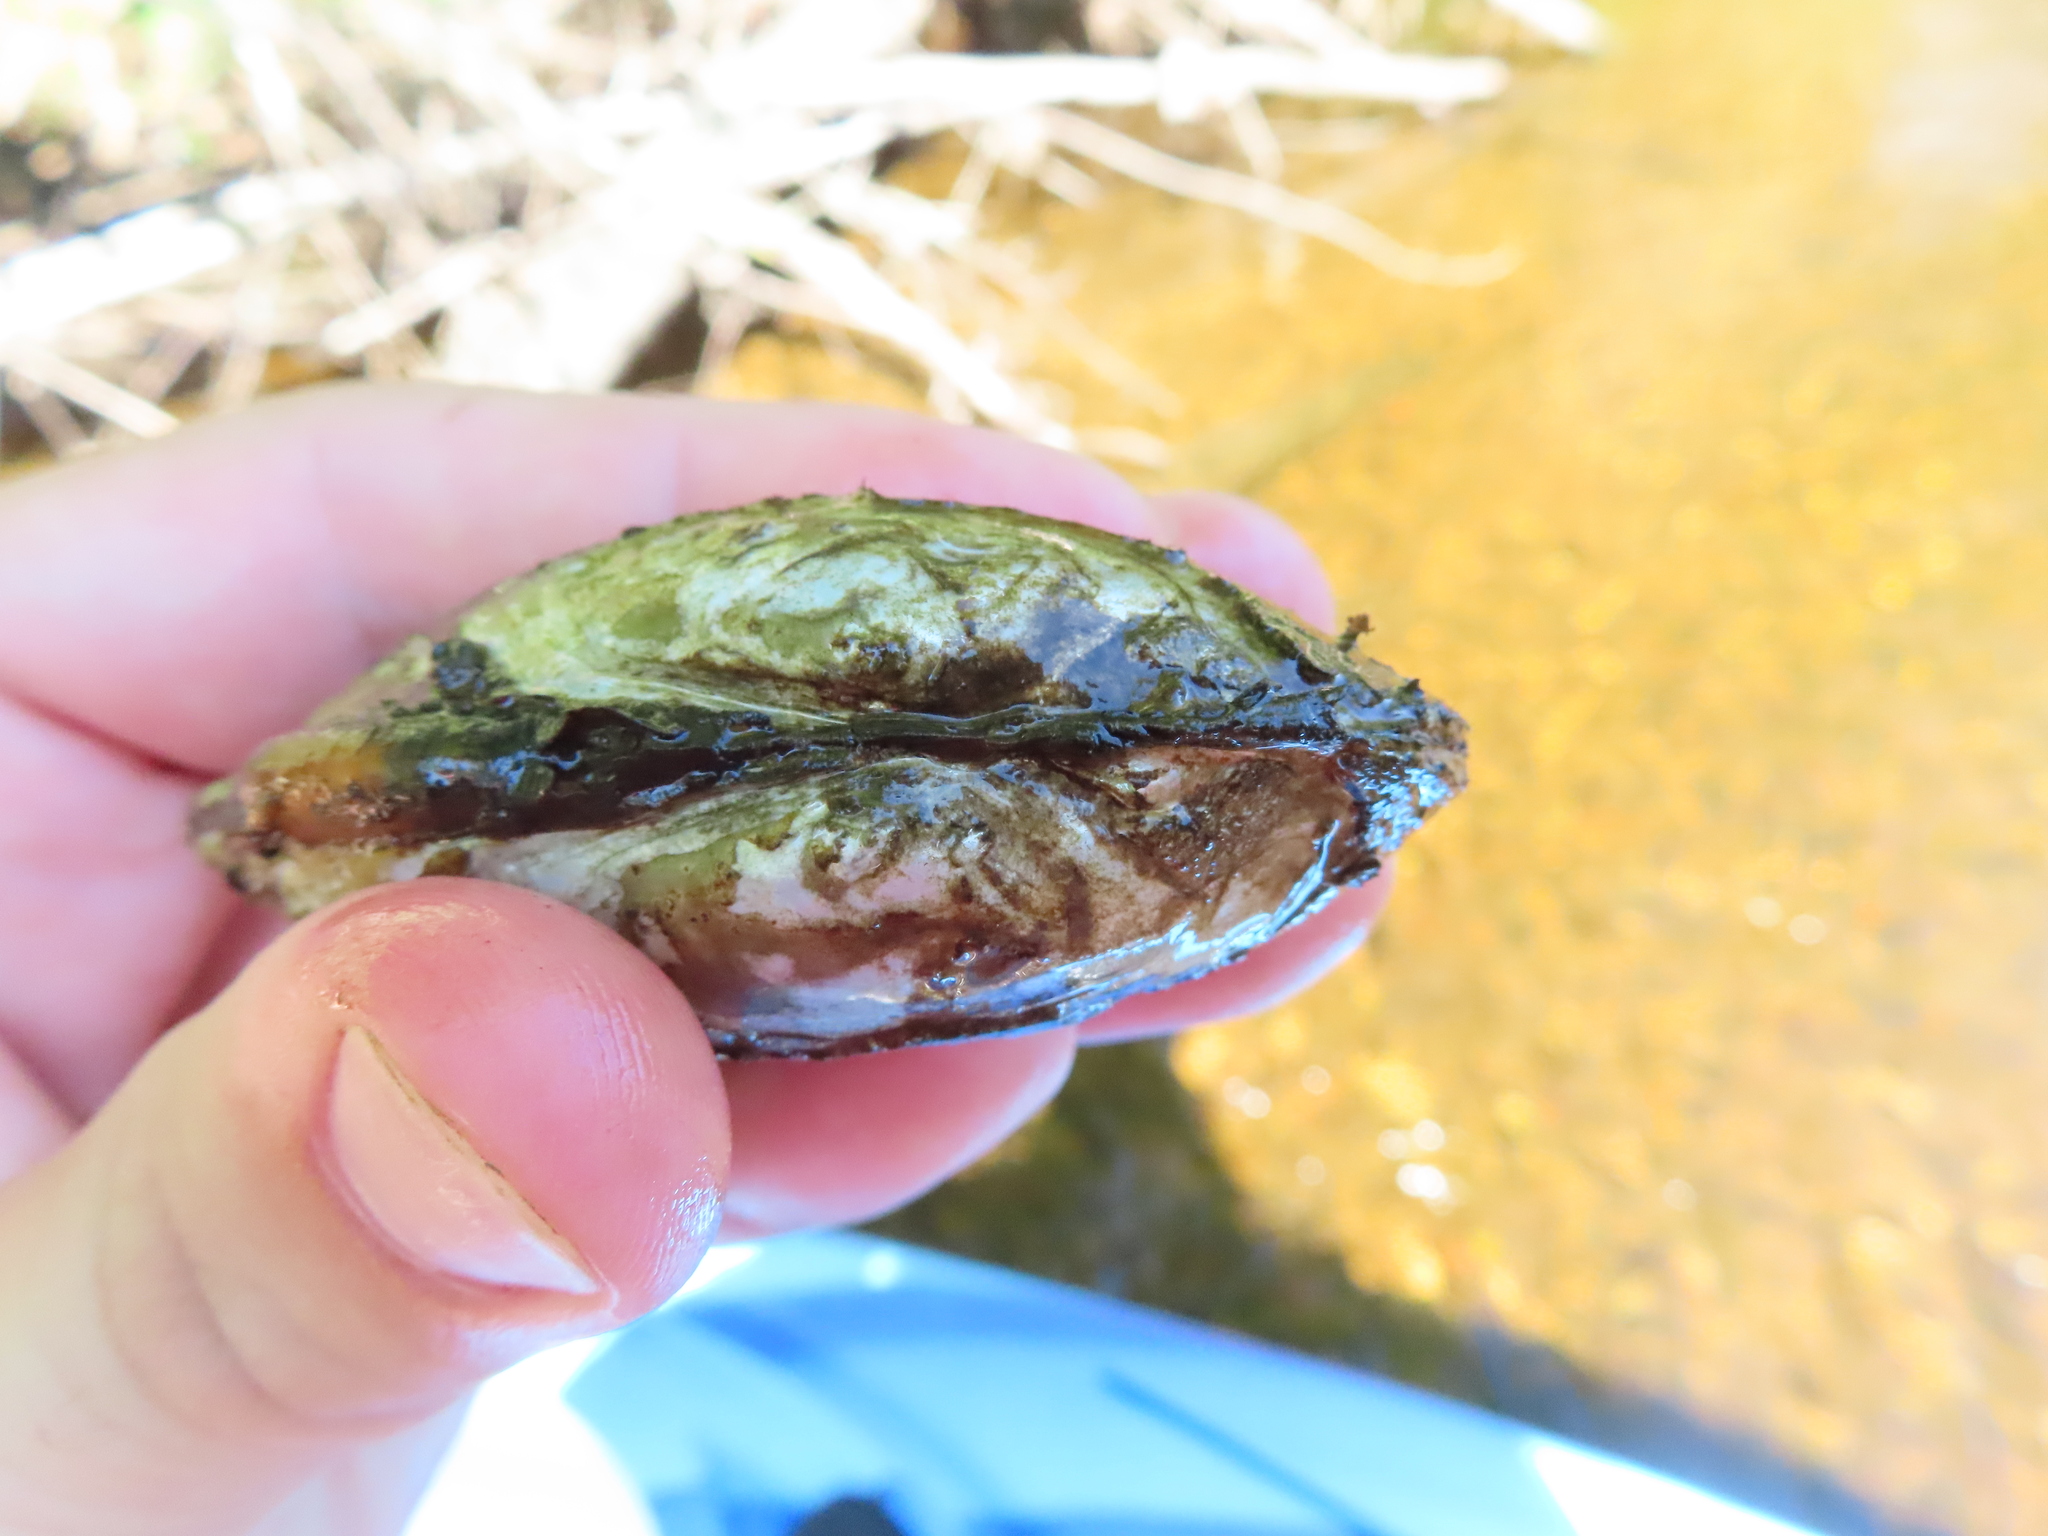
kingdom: Animalia
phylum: Mollusca
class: Bivalvia
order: Unionida
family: Unionidae
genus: Lampsilis
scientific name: Lampsilis siliquoidea
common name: Fatmucket
